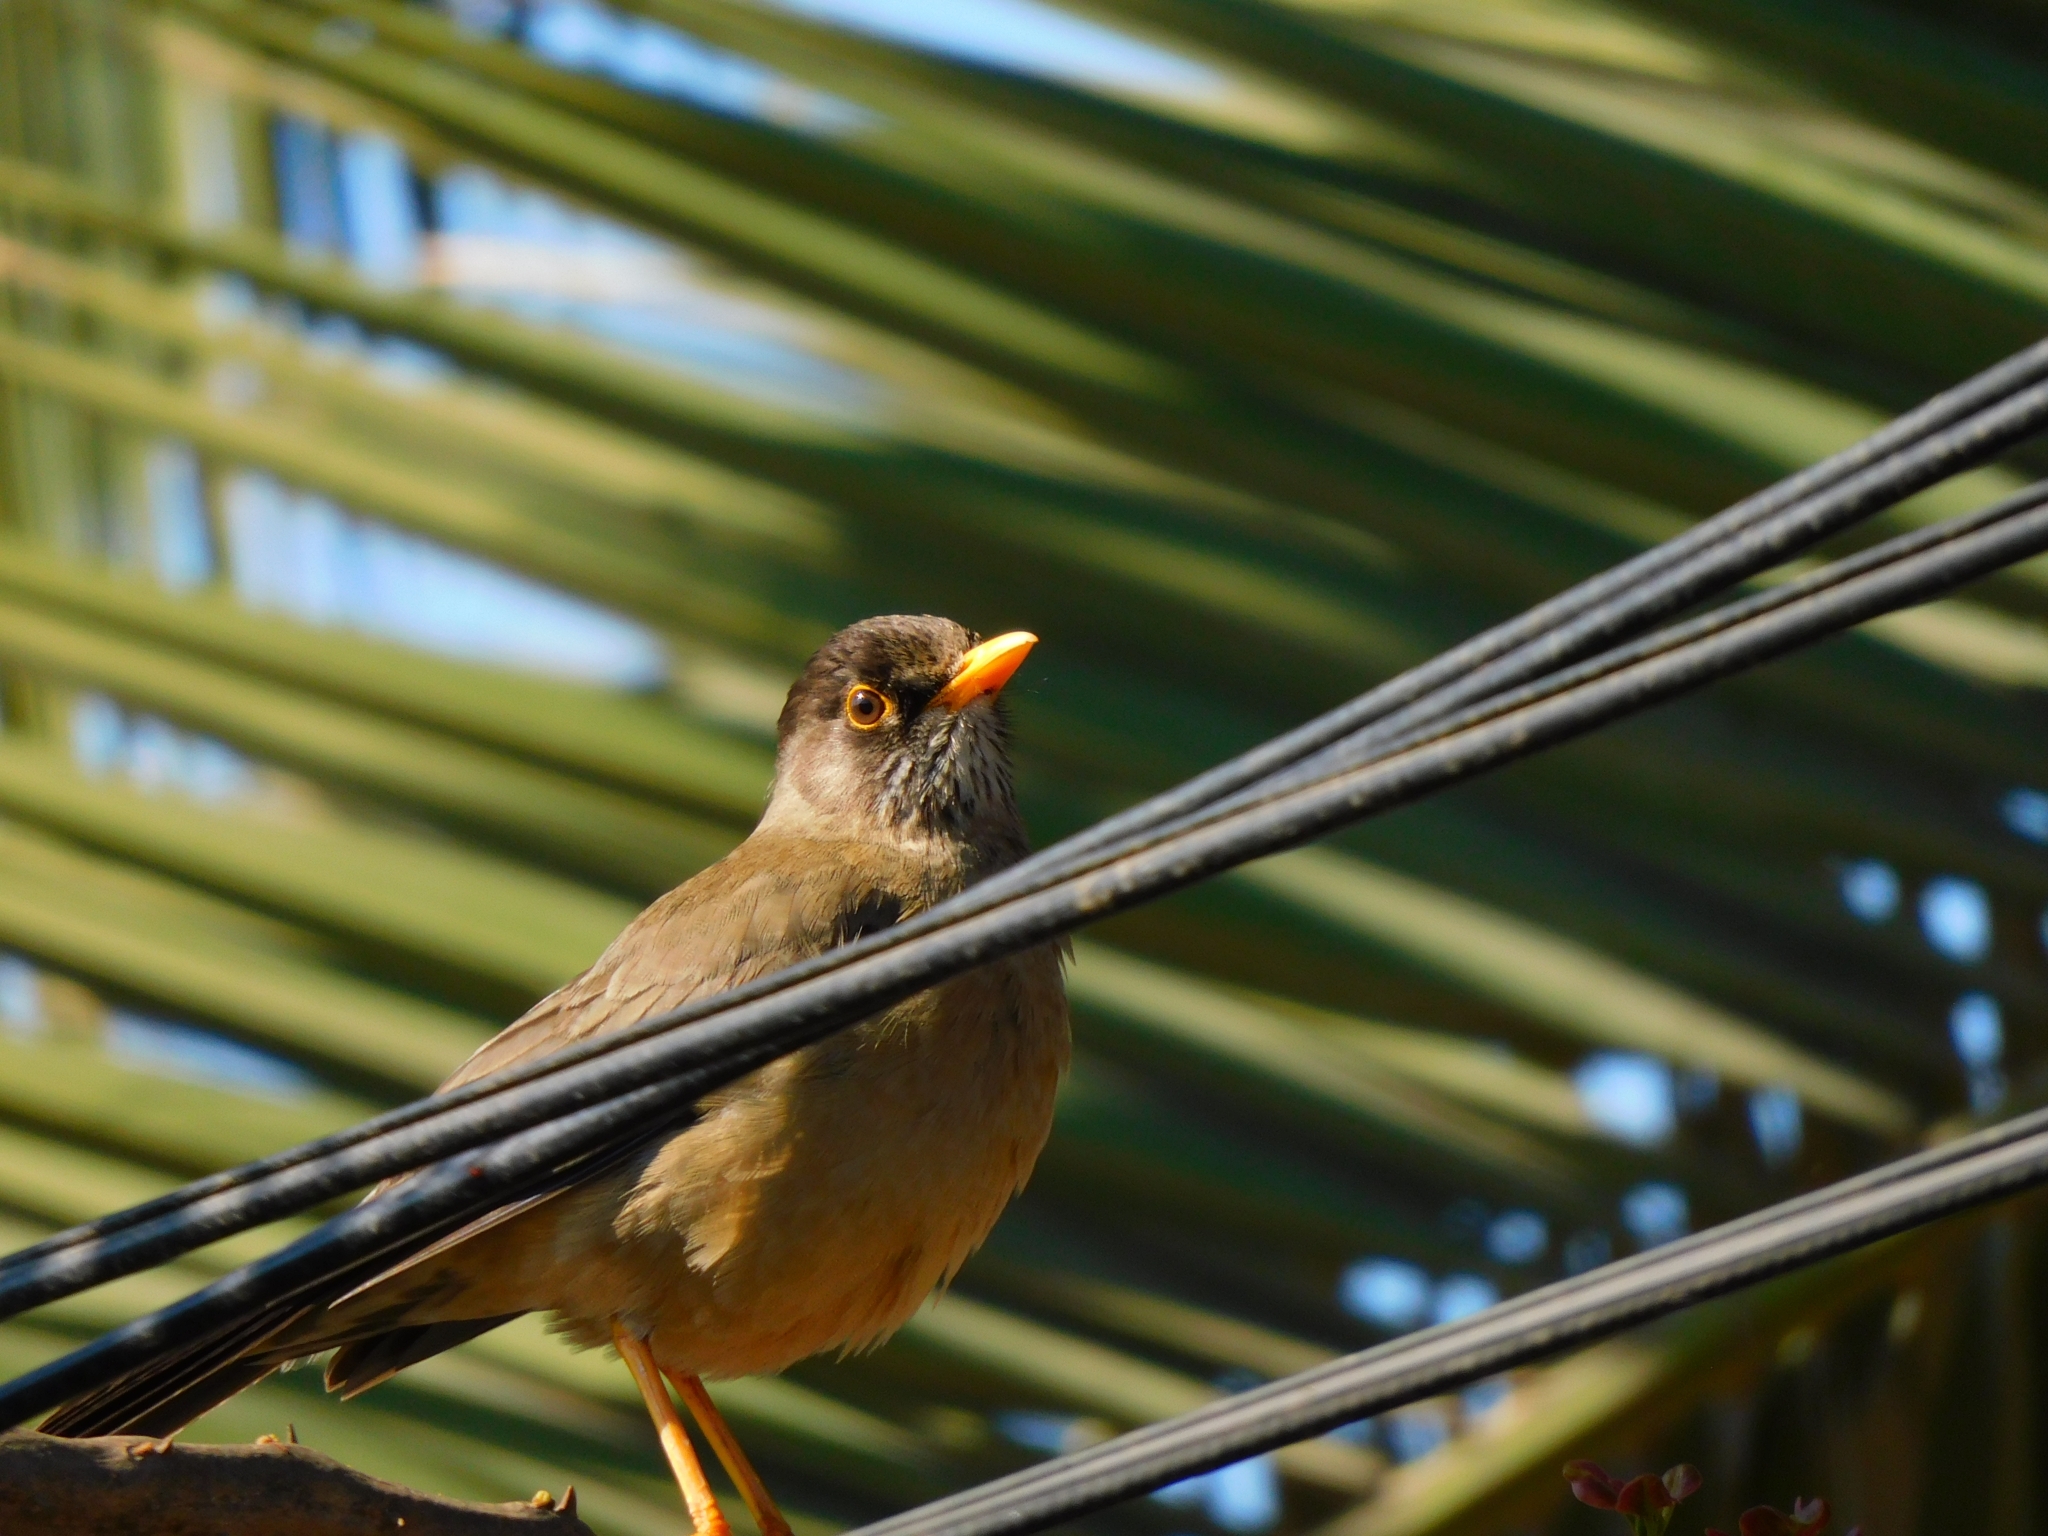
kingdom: Animalia
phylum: Chordata
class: Aves
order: Passeriformes
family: Turdidae
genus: Turdus
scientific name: Turdus falcklandii
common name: Austral thrush
